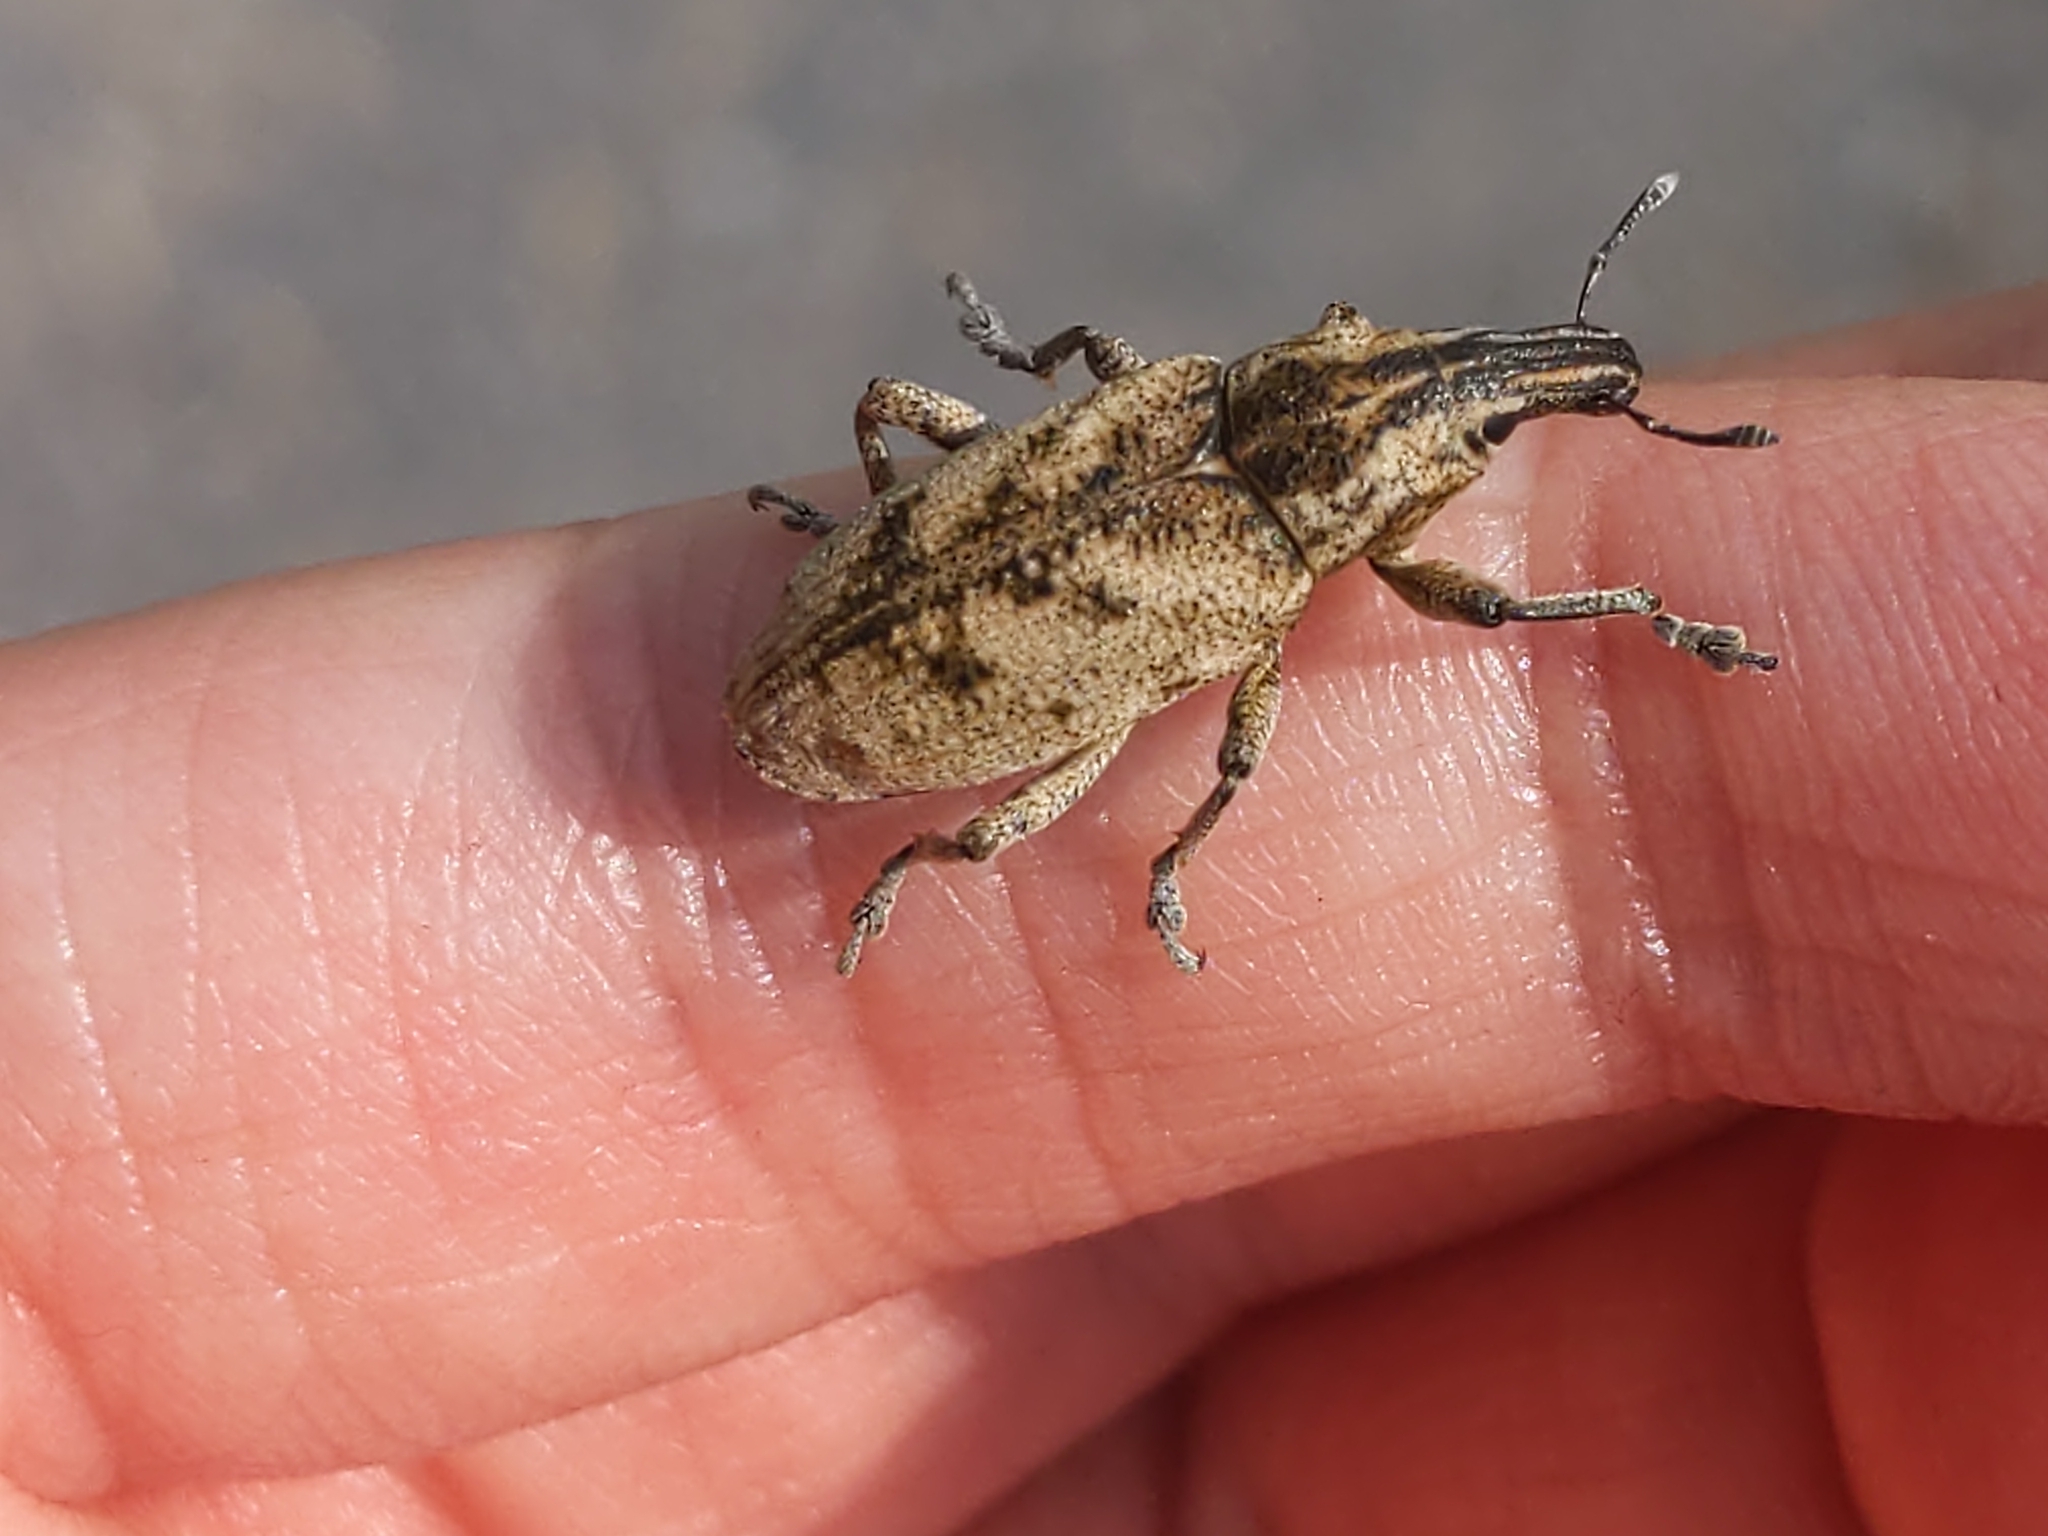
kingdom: Animalia
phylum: Arthropoda
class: Insecta
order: Coleoptera
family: Curculionidae
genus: Cleonis
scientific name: Cleonis pigra
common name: Large thistle weevil
